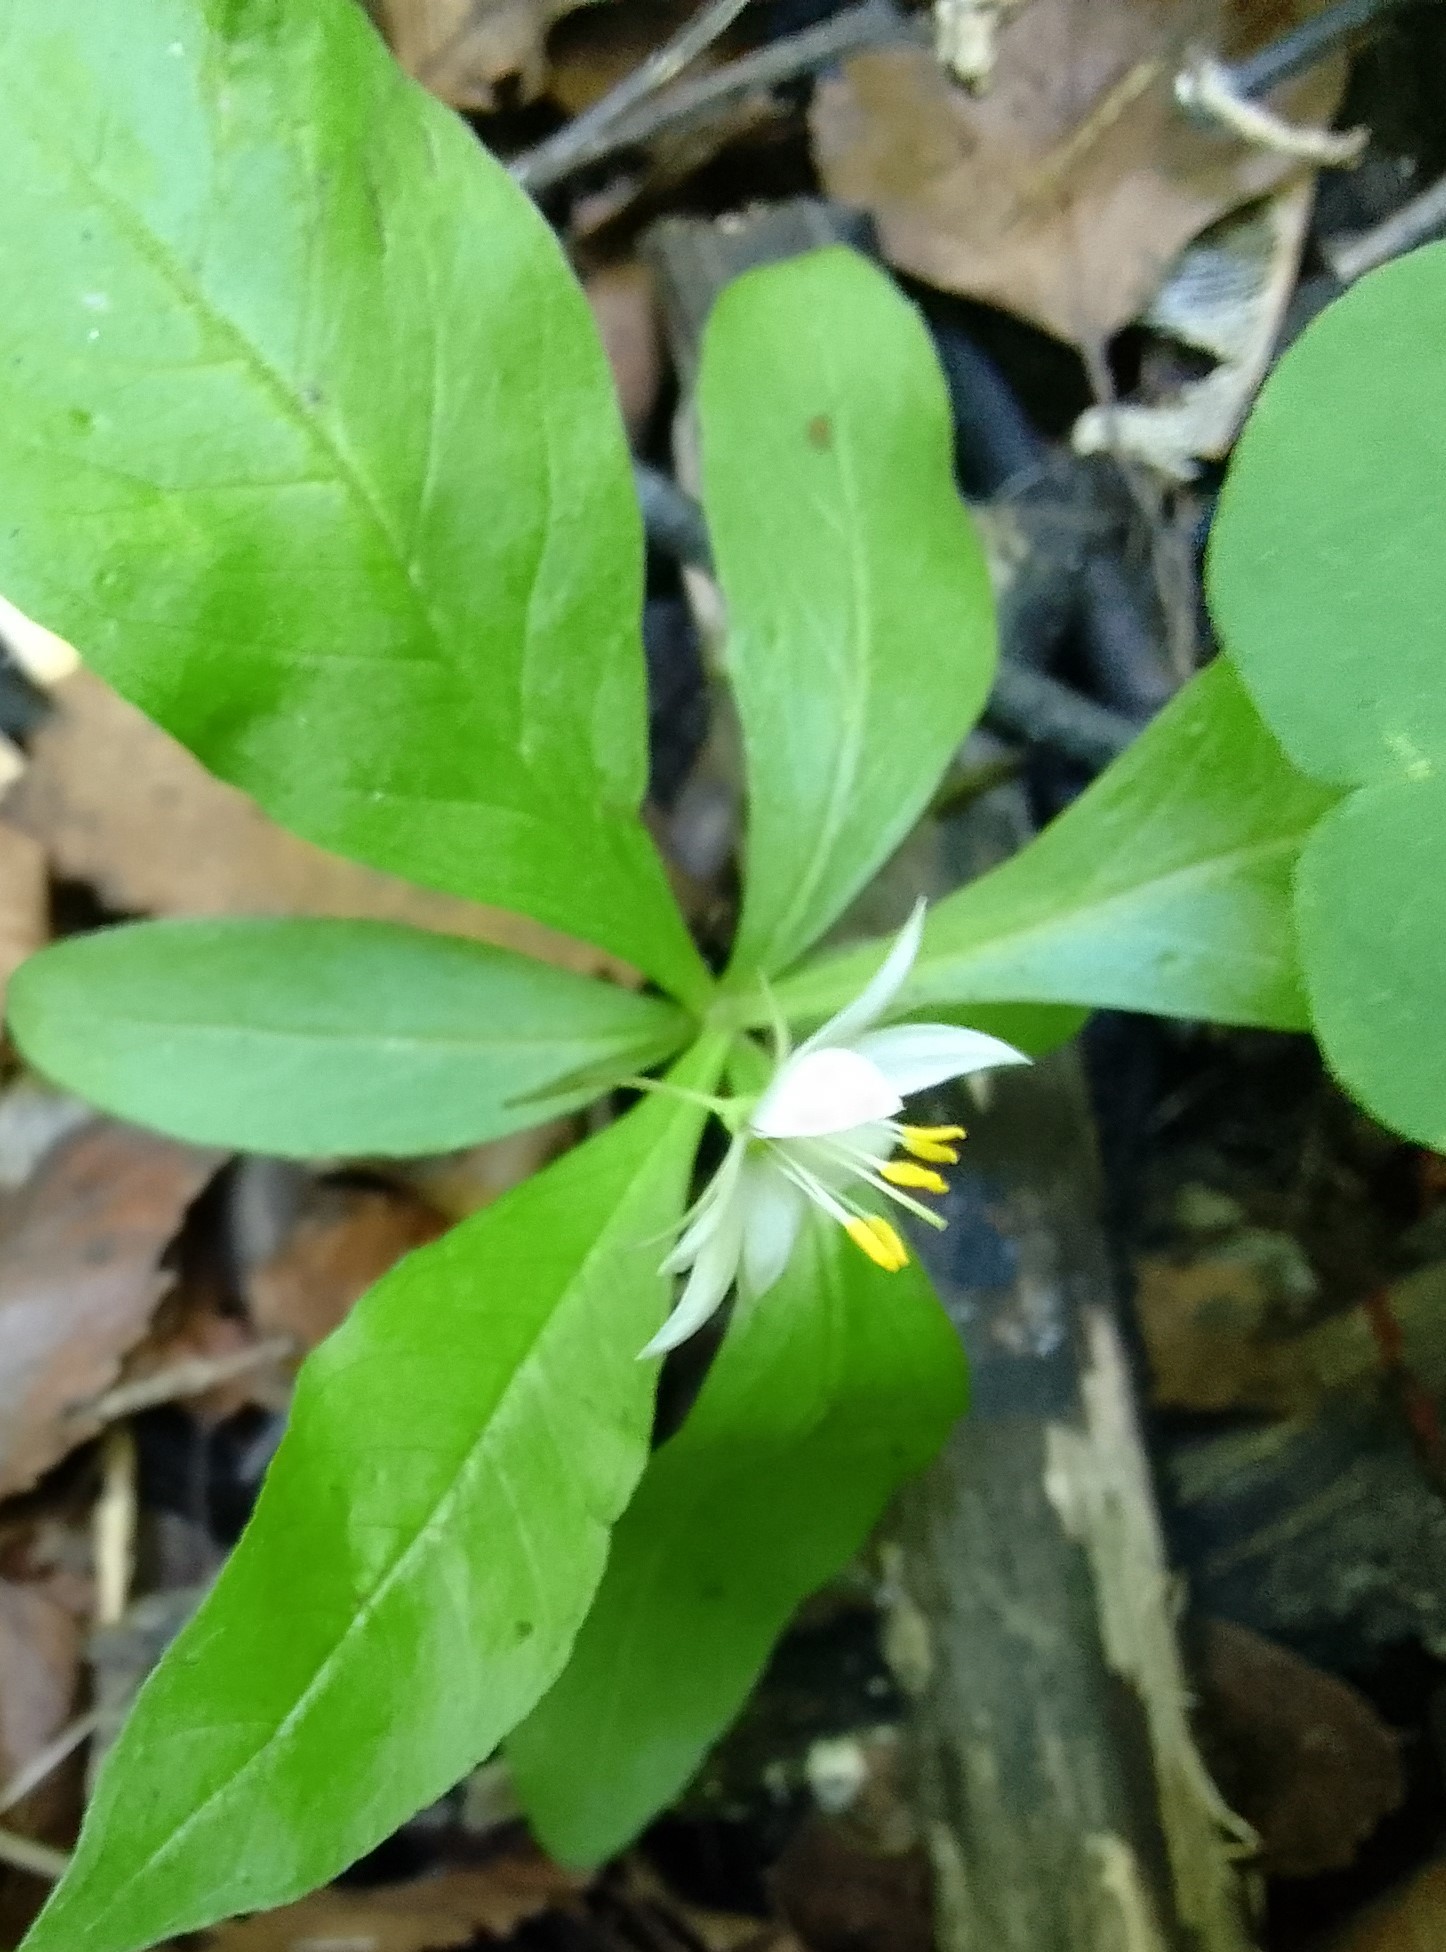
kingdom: Plantae
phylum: Tracheophyta
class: Magnoliopsida
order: Ericales
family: Primulaceae
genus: Lysimachia
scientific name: Lysimachia europaea
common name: Arctic starflower
